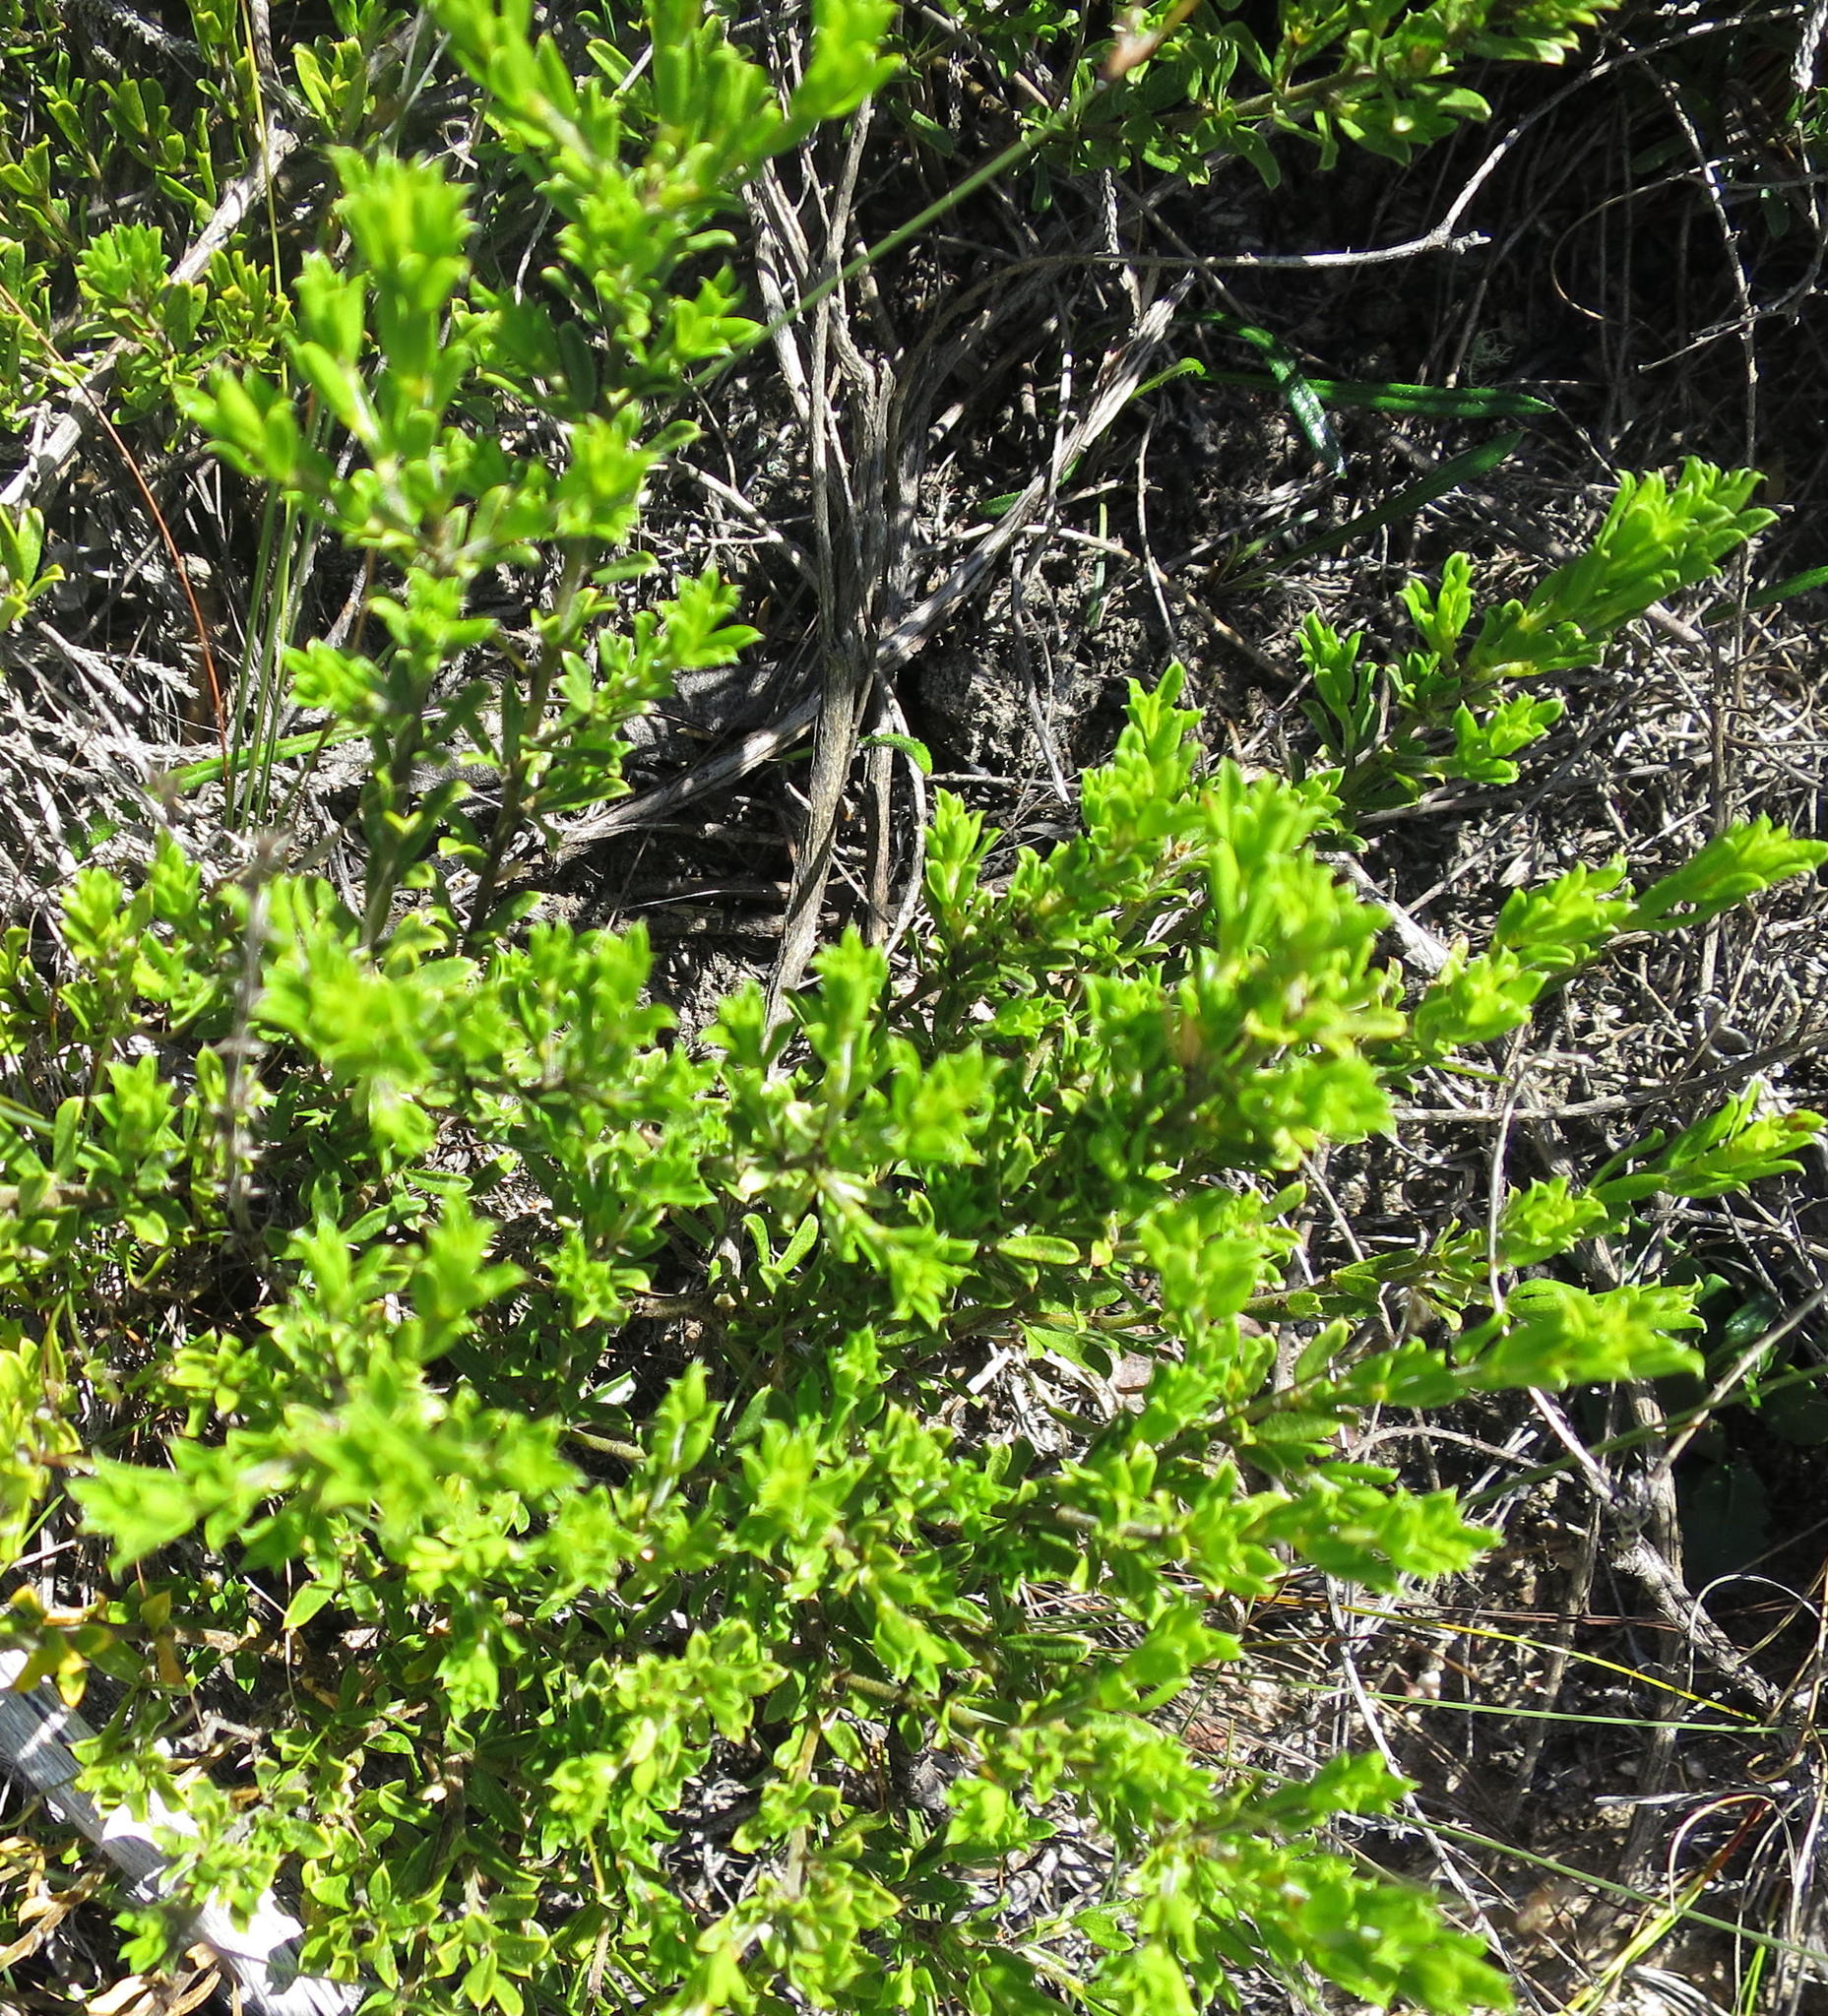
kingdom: Plantae
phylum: Tracheophyta
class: Magnoliopsida
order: Fabales
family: Fabaceae
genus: Psoralea
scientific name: Psoralea heterosepala
